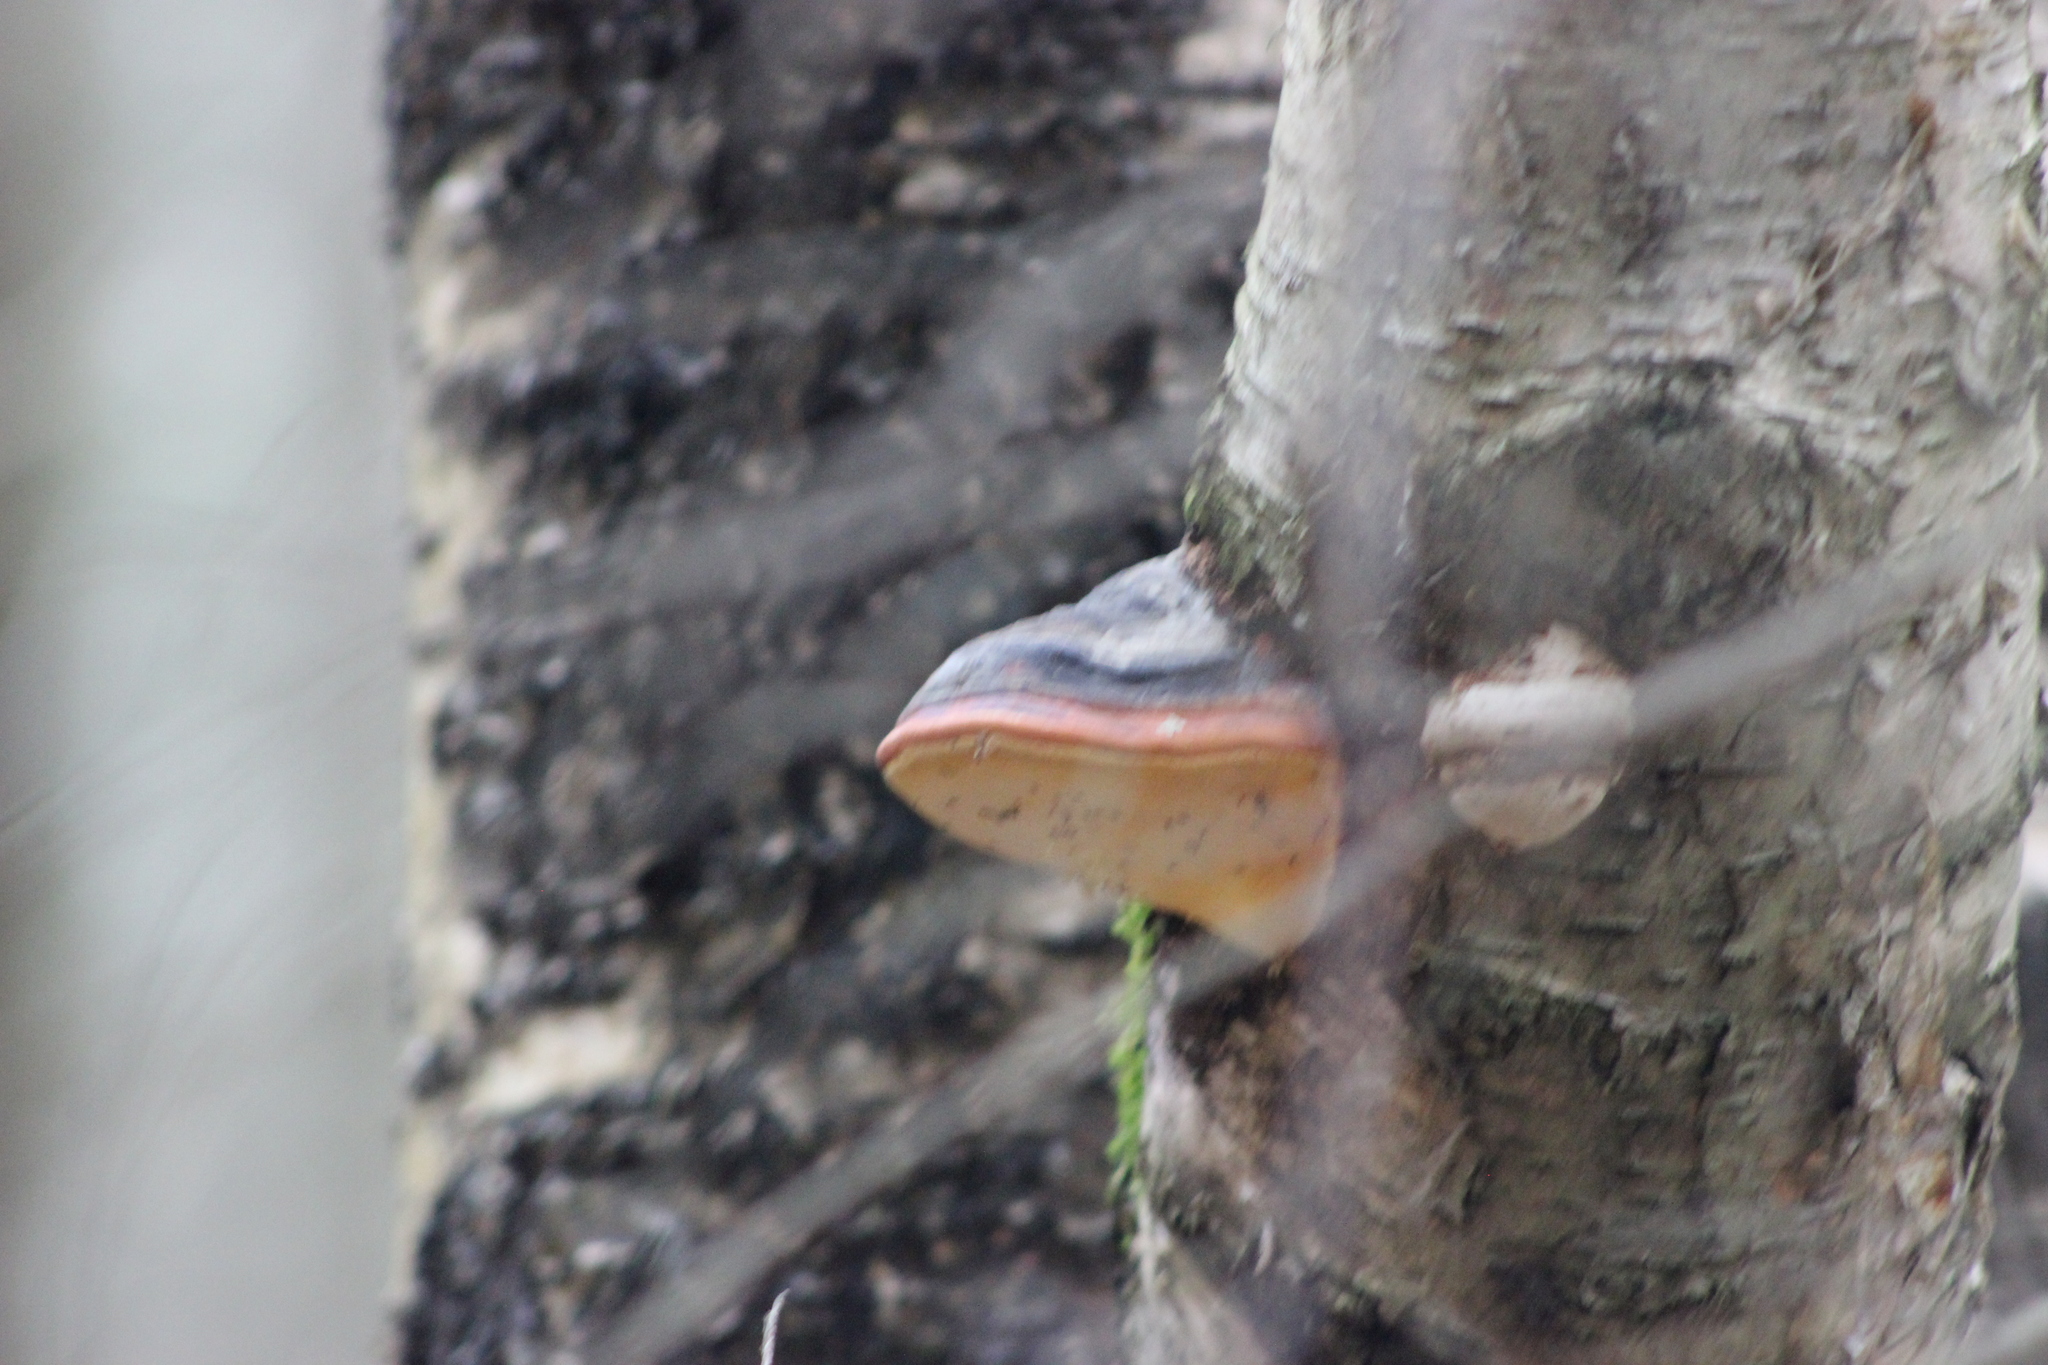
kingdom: Fungi
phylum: Basidiomycota
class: Agaricomycetes
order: Polyporales
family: Fomitopsidaceae
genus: Fomitopsis
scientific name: Fomitopsis pinicola
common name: Red-belted bracket
